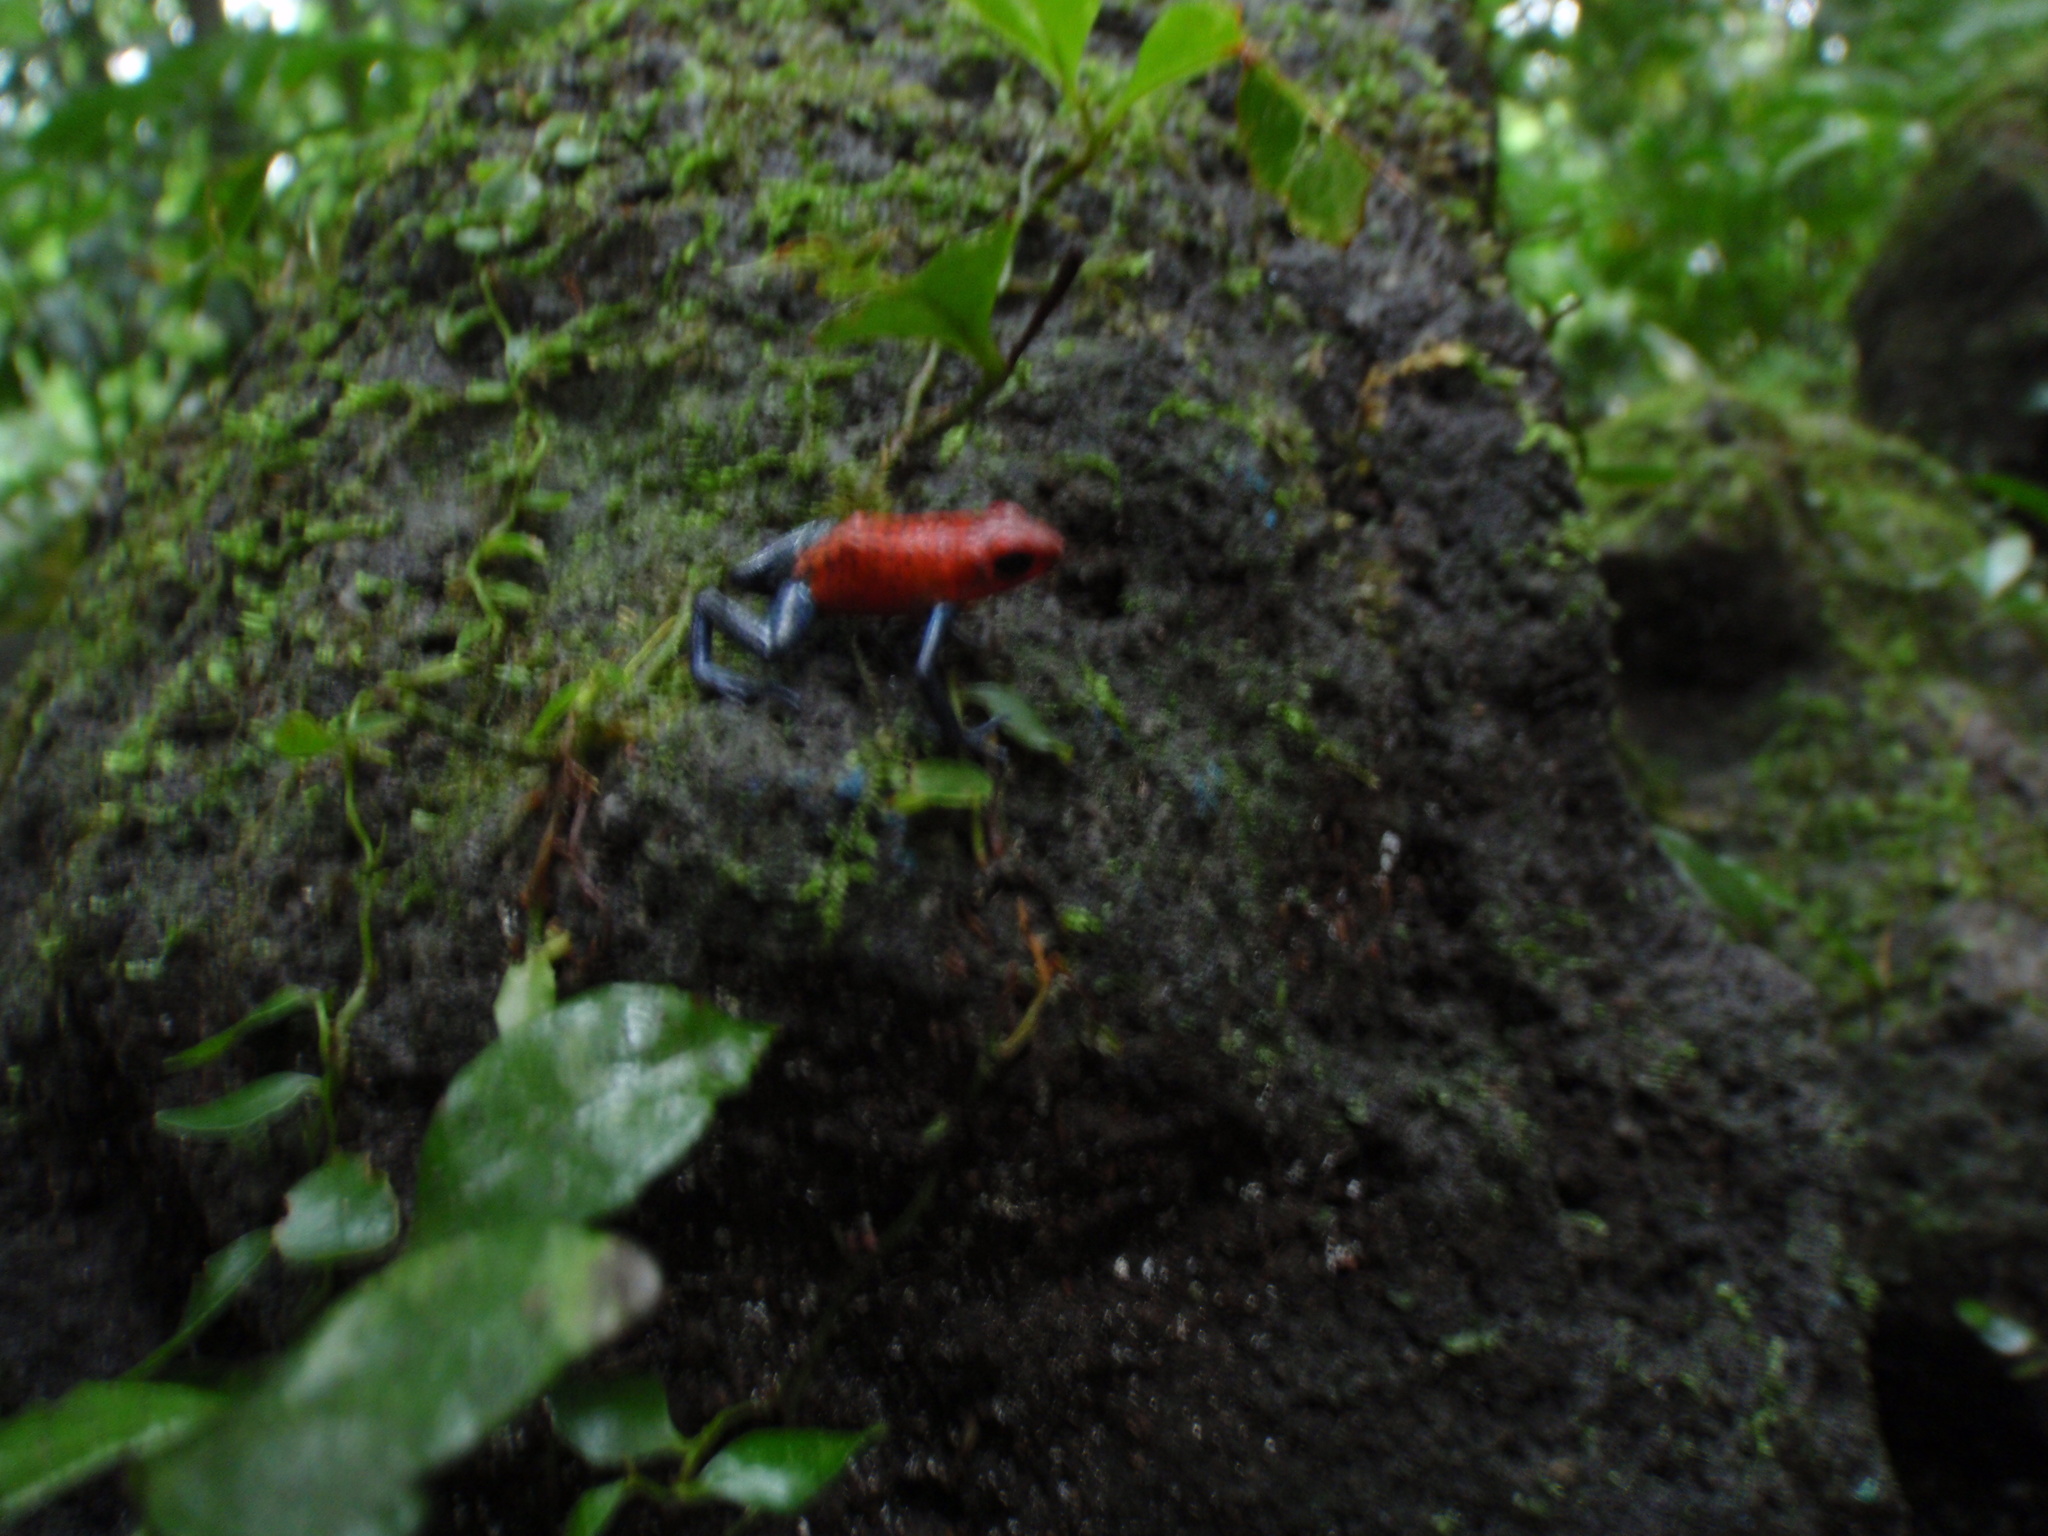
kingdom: Animalia
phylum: Chordata
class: Amphibia
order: Anura
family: Dendrobatidae
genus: Oophaga
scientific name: Oophaga pumilio
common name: Flaming poison frog
